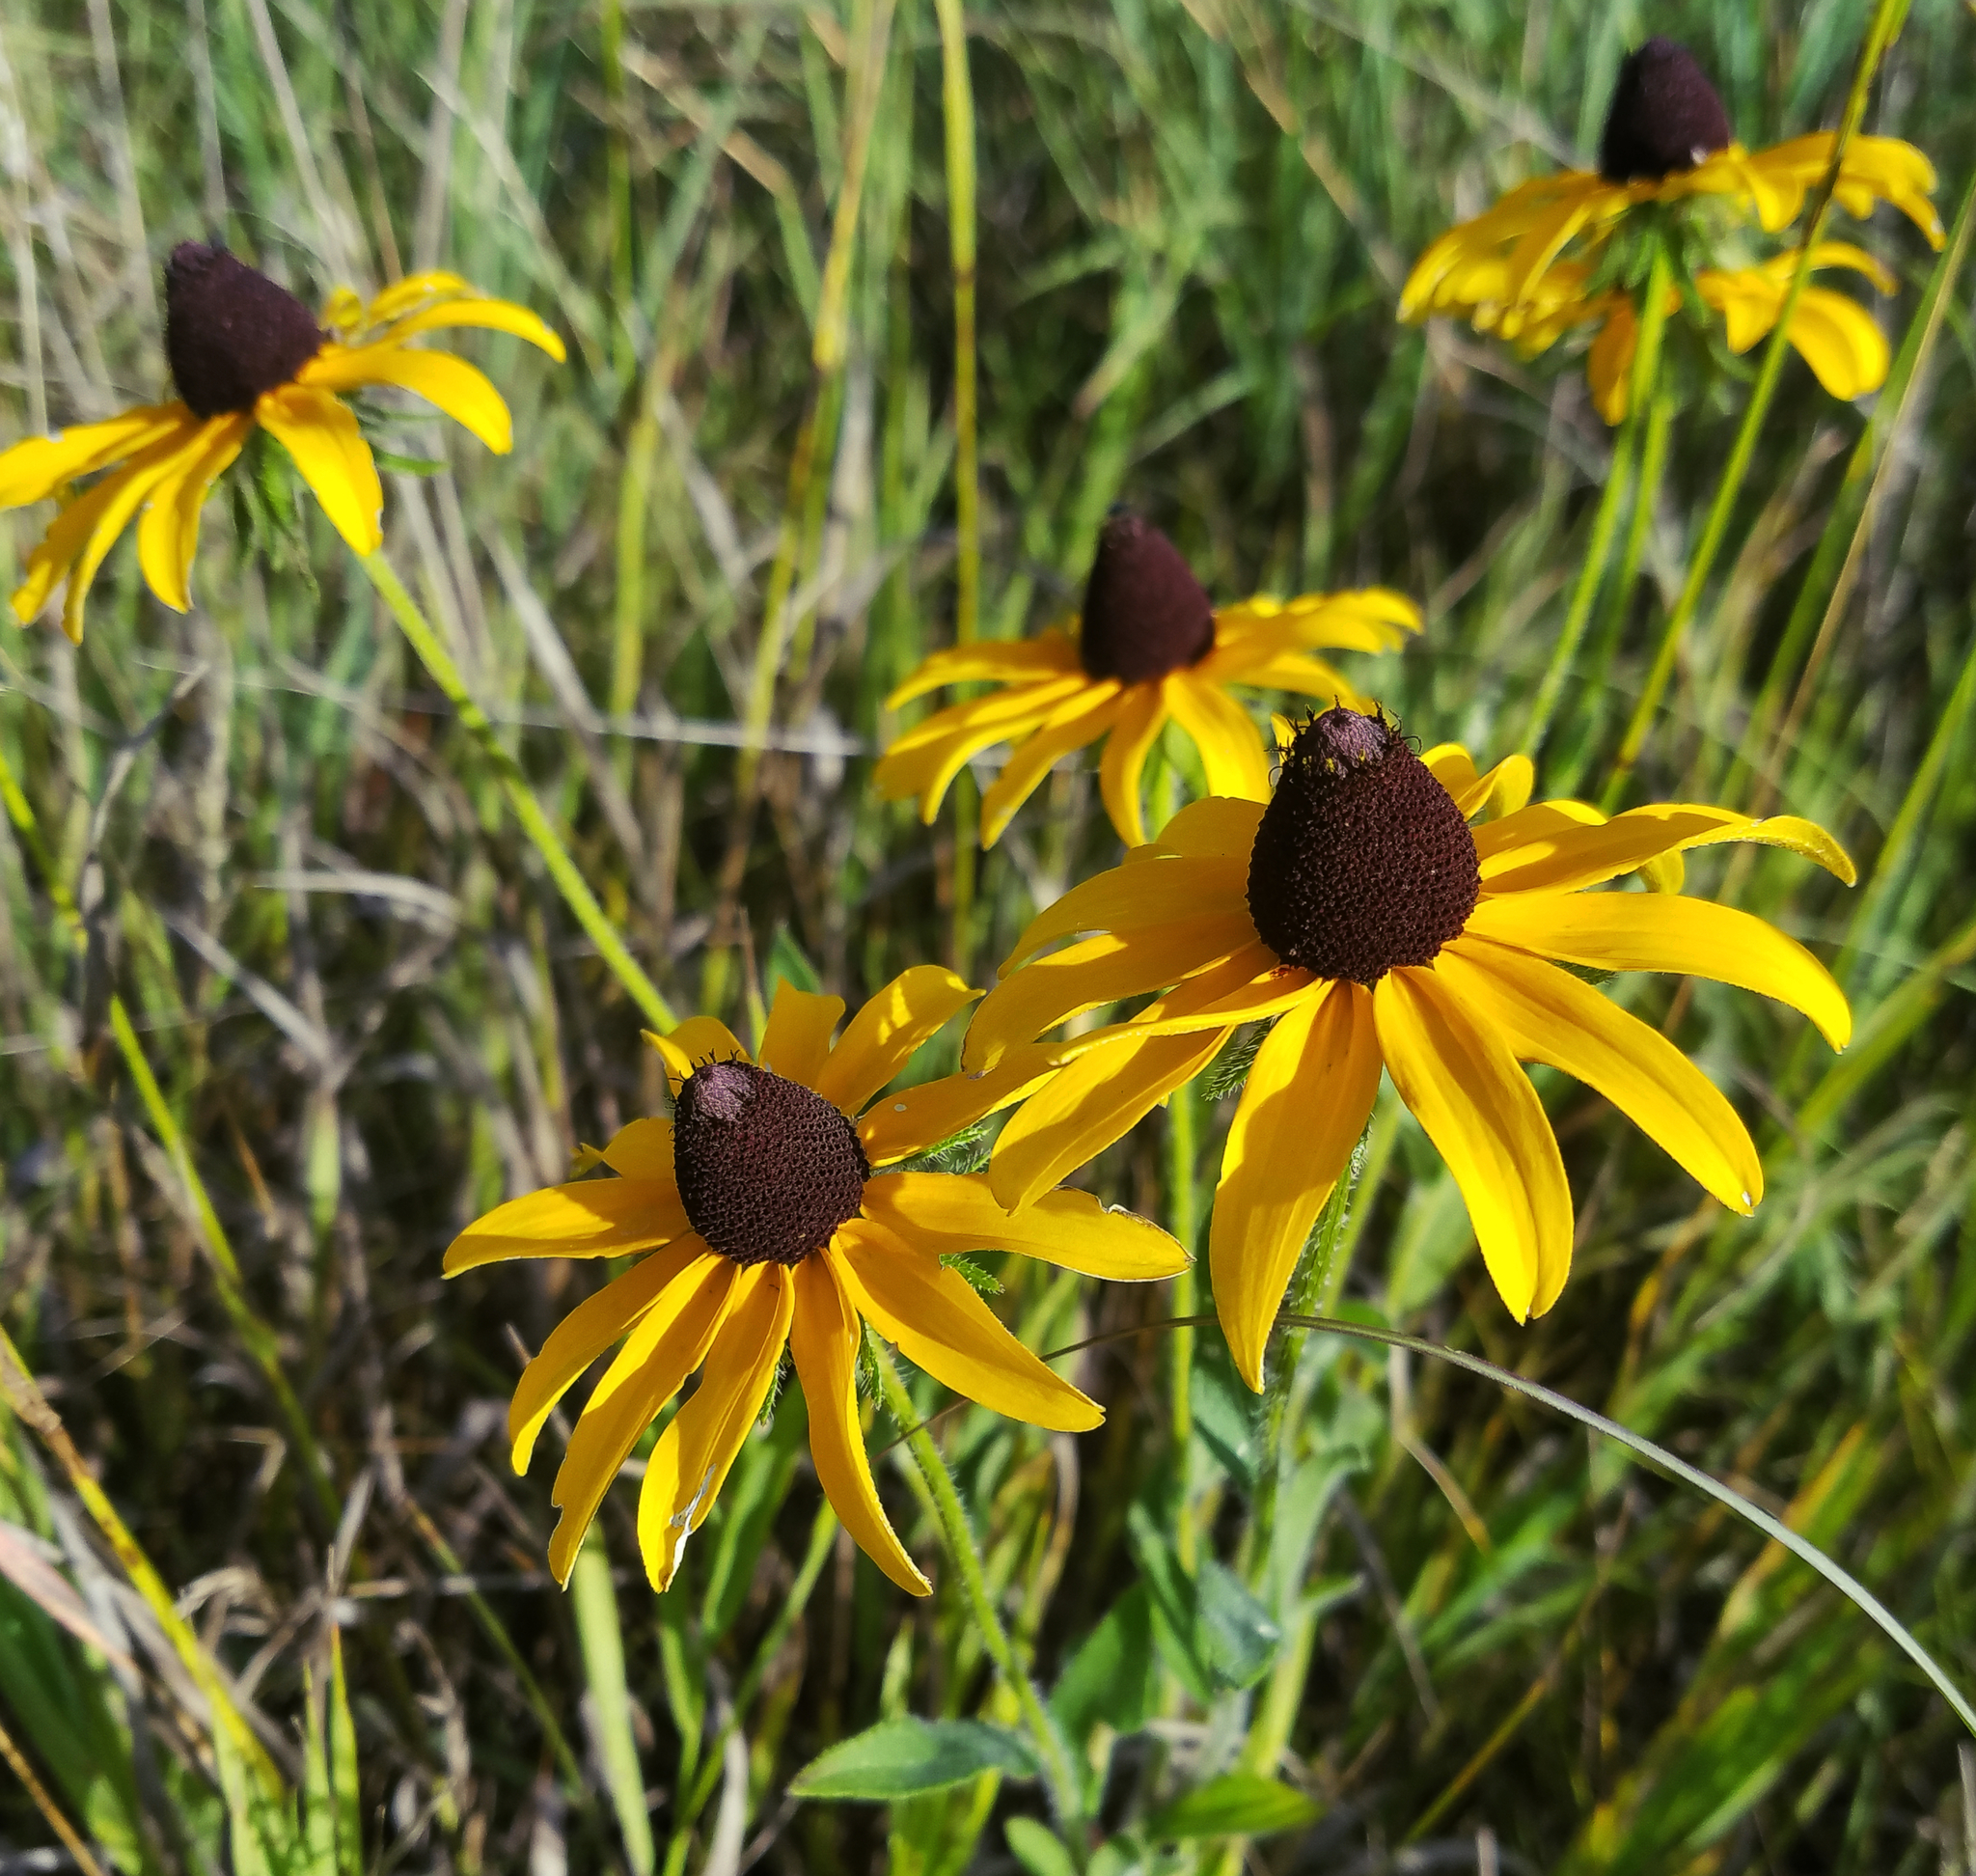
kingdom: Plantae
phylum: Tracheophyta
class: Magnoliopsida
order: Asterales
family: Asteraceae
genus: Rudbeckia
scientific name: Rudbeckia hirta
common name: Black-eyed-susan
